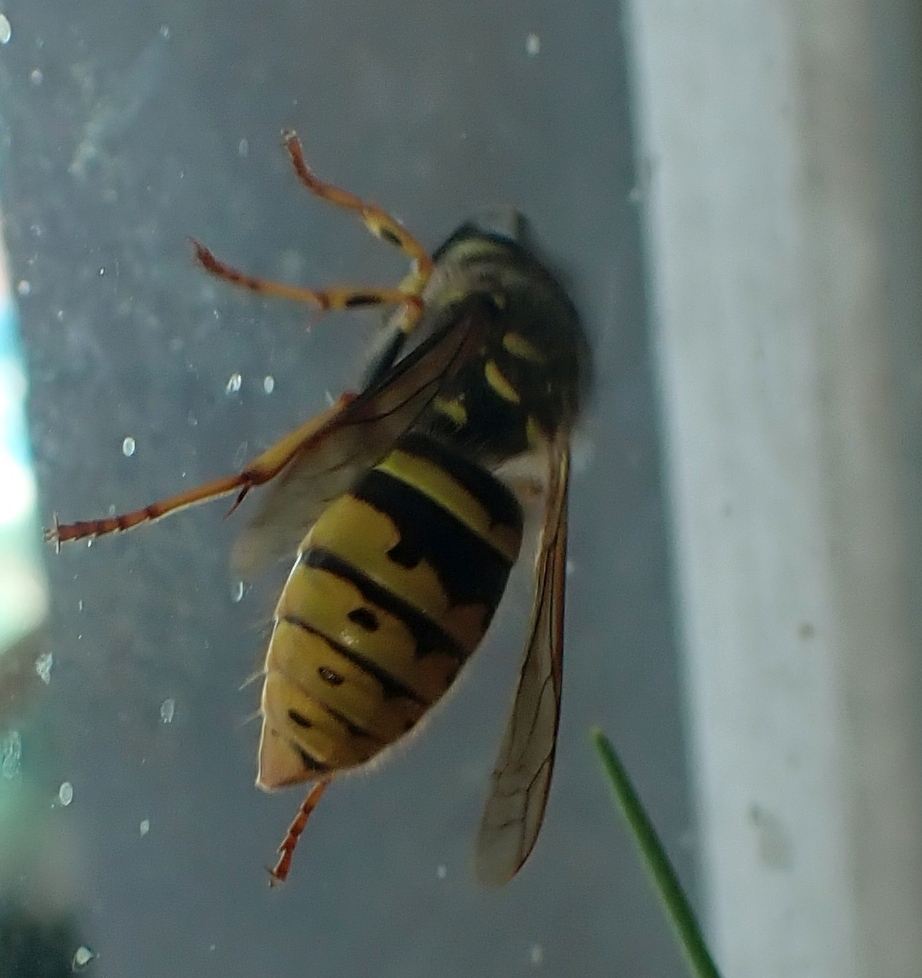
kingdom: Animalia
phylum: Arthropoda
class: Insecta
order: Hymenoptera
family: Vespidae
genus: Vespula
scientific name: Vespula vulgaris
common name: Common wasp
